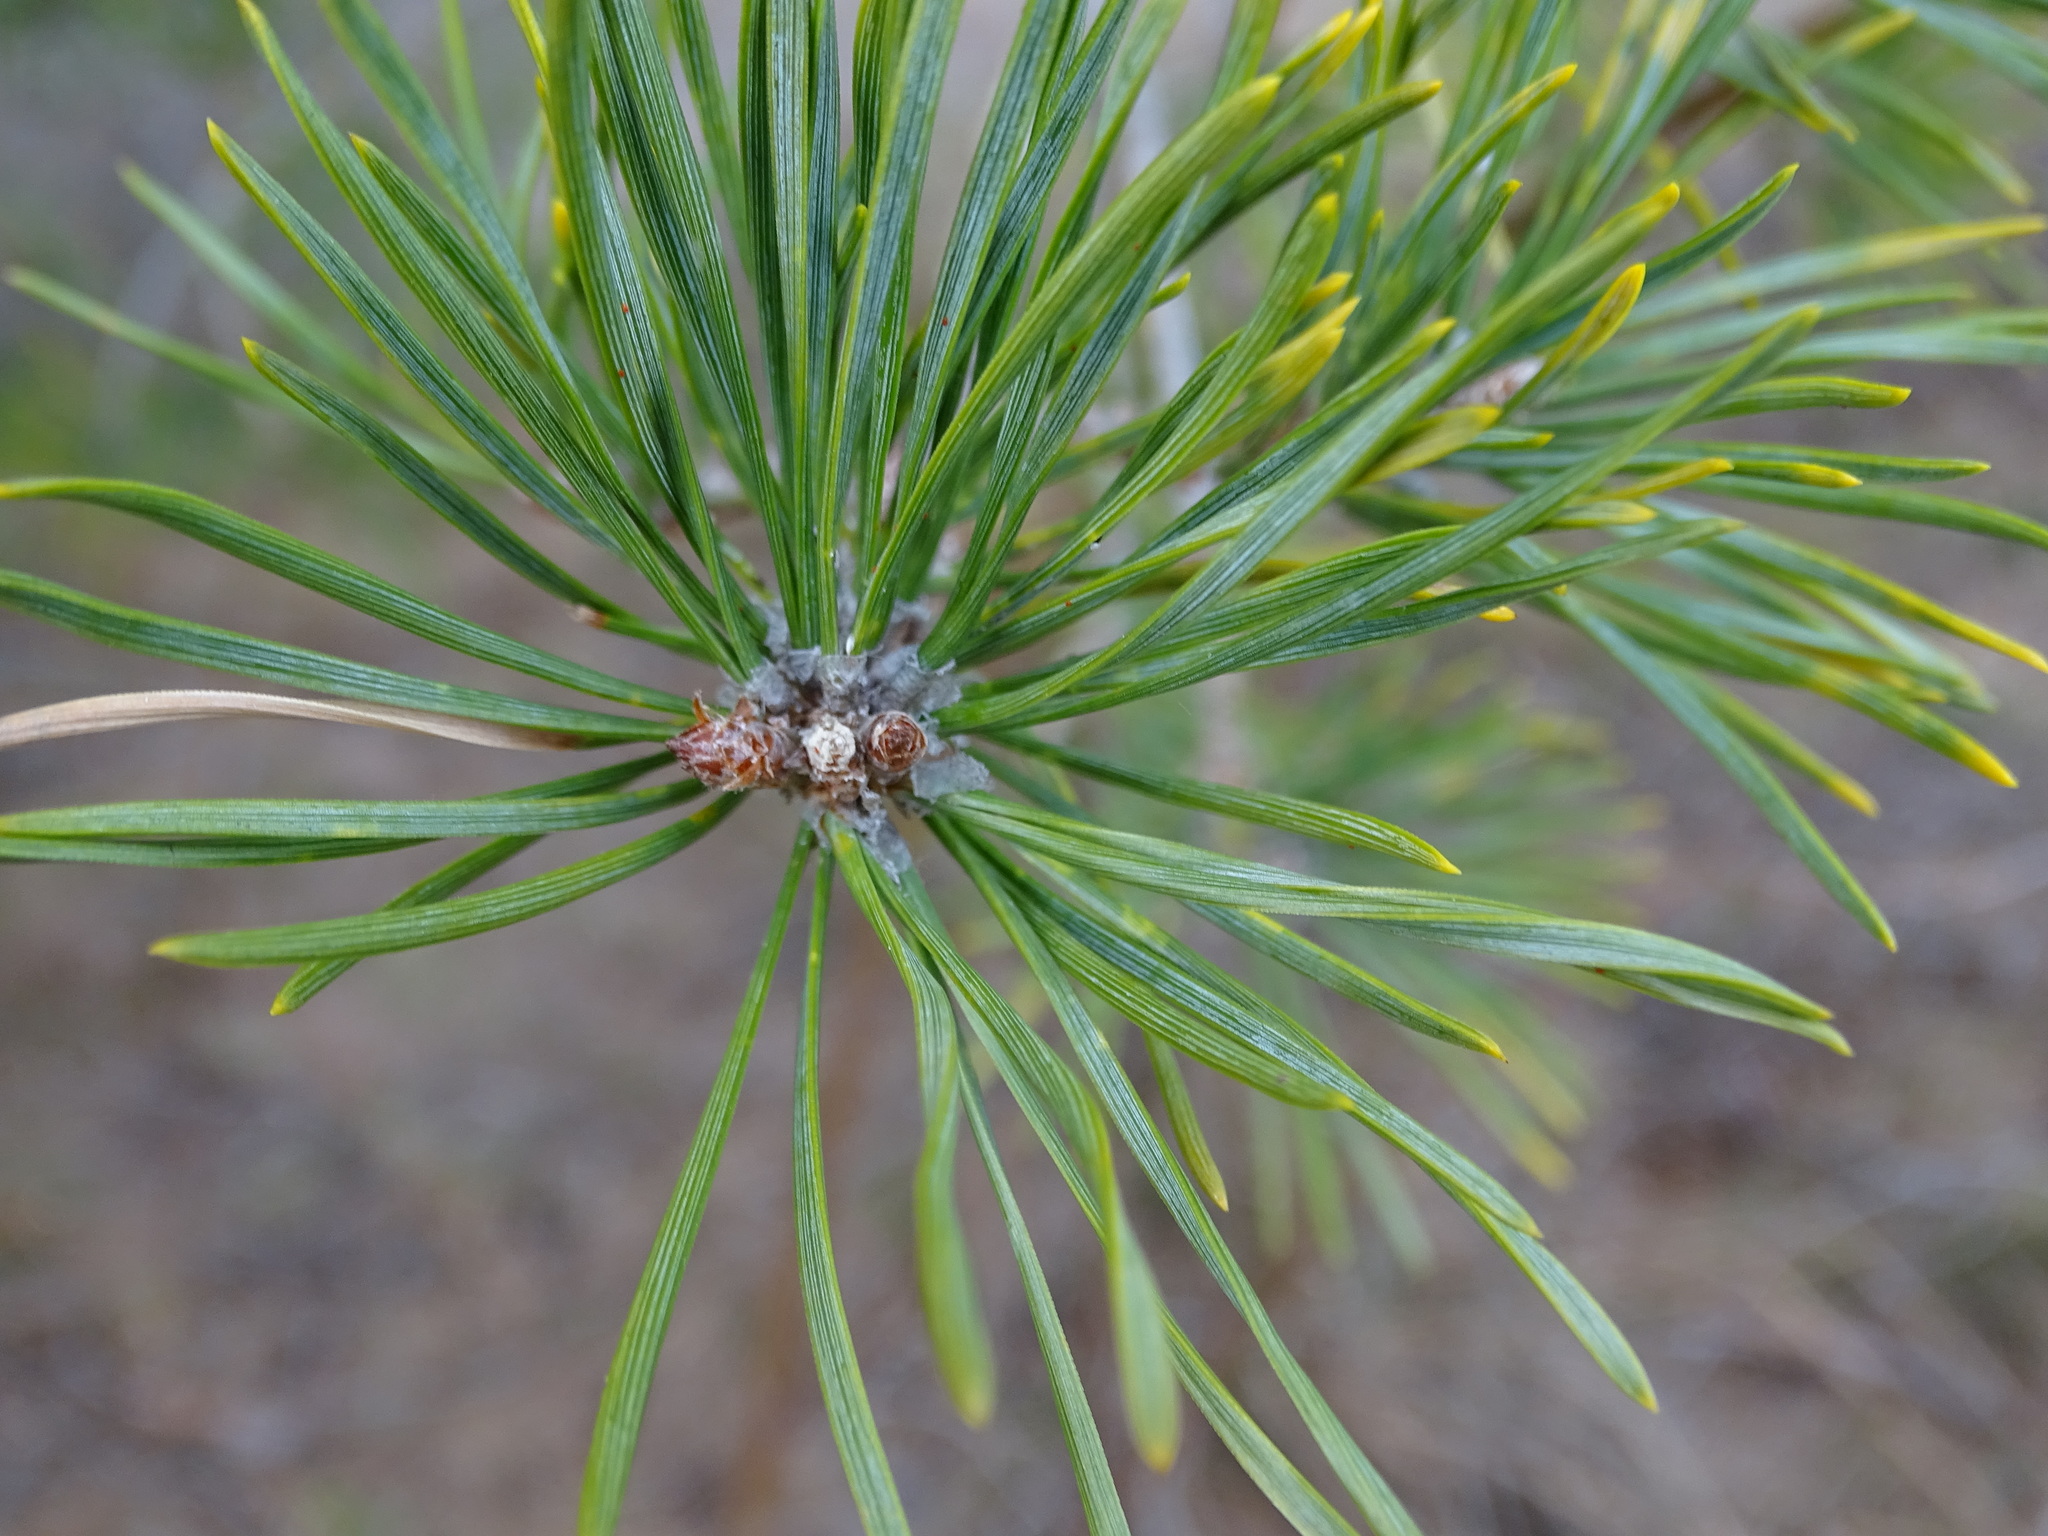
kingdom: Plantae
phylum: Tracheophyta
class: Pinopsida
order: Pinales
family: Pinaceae
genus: Pinus
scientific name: Pinus sylvestris
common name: Scots pine
